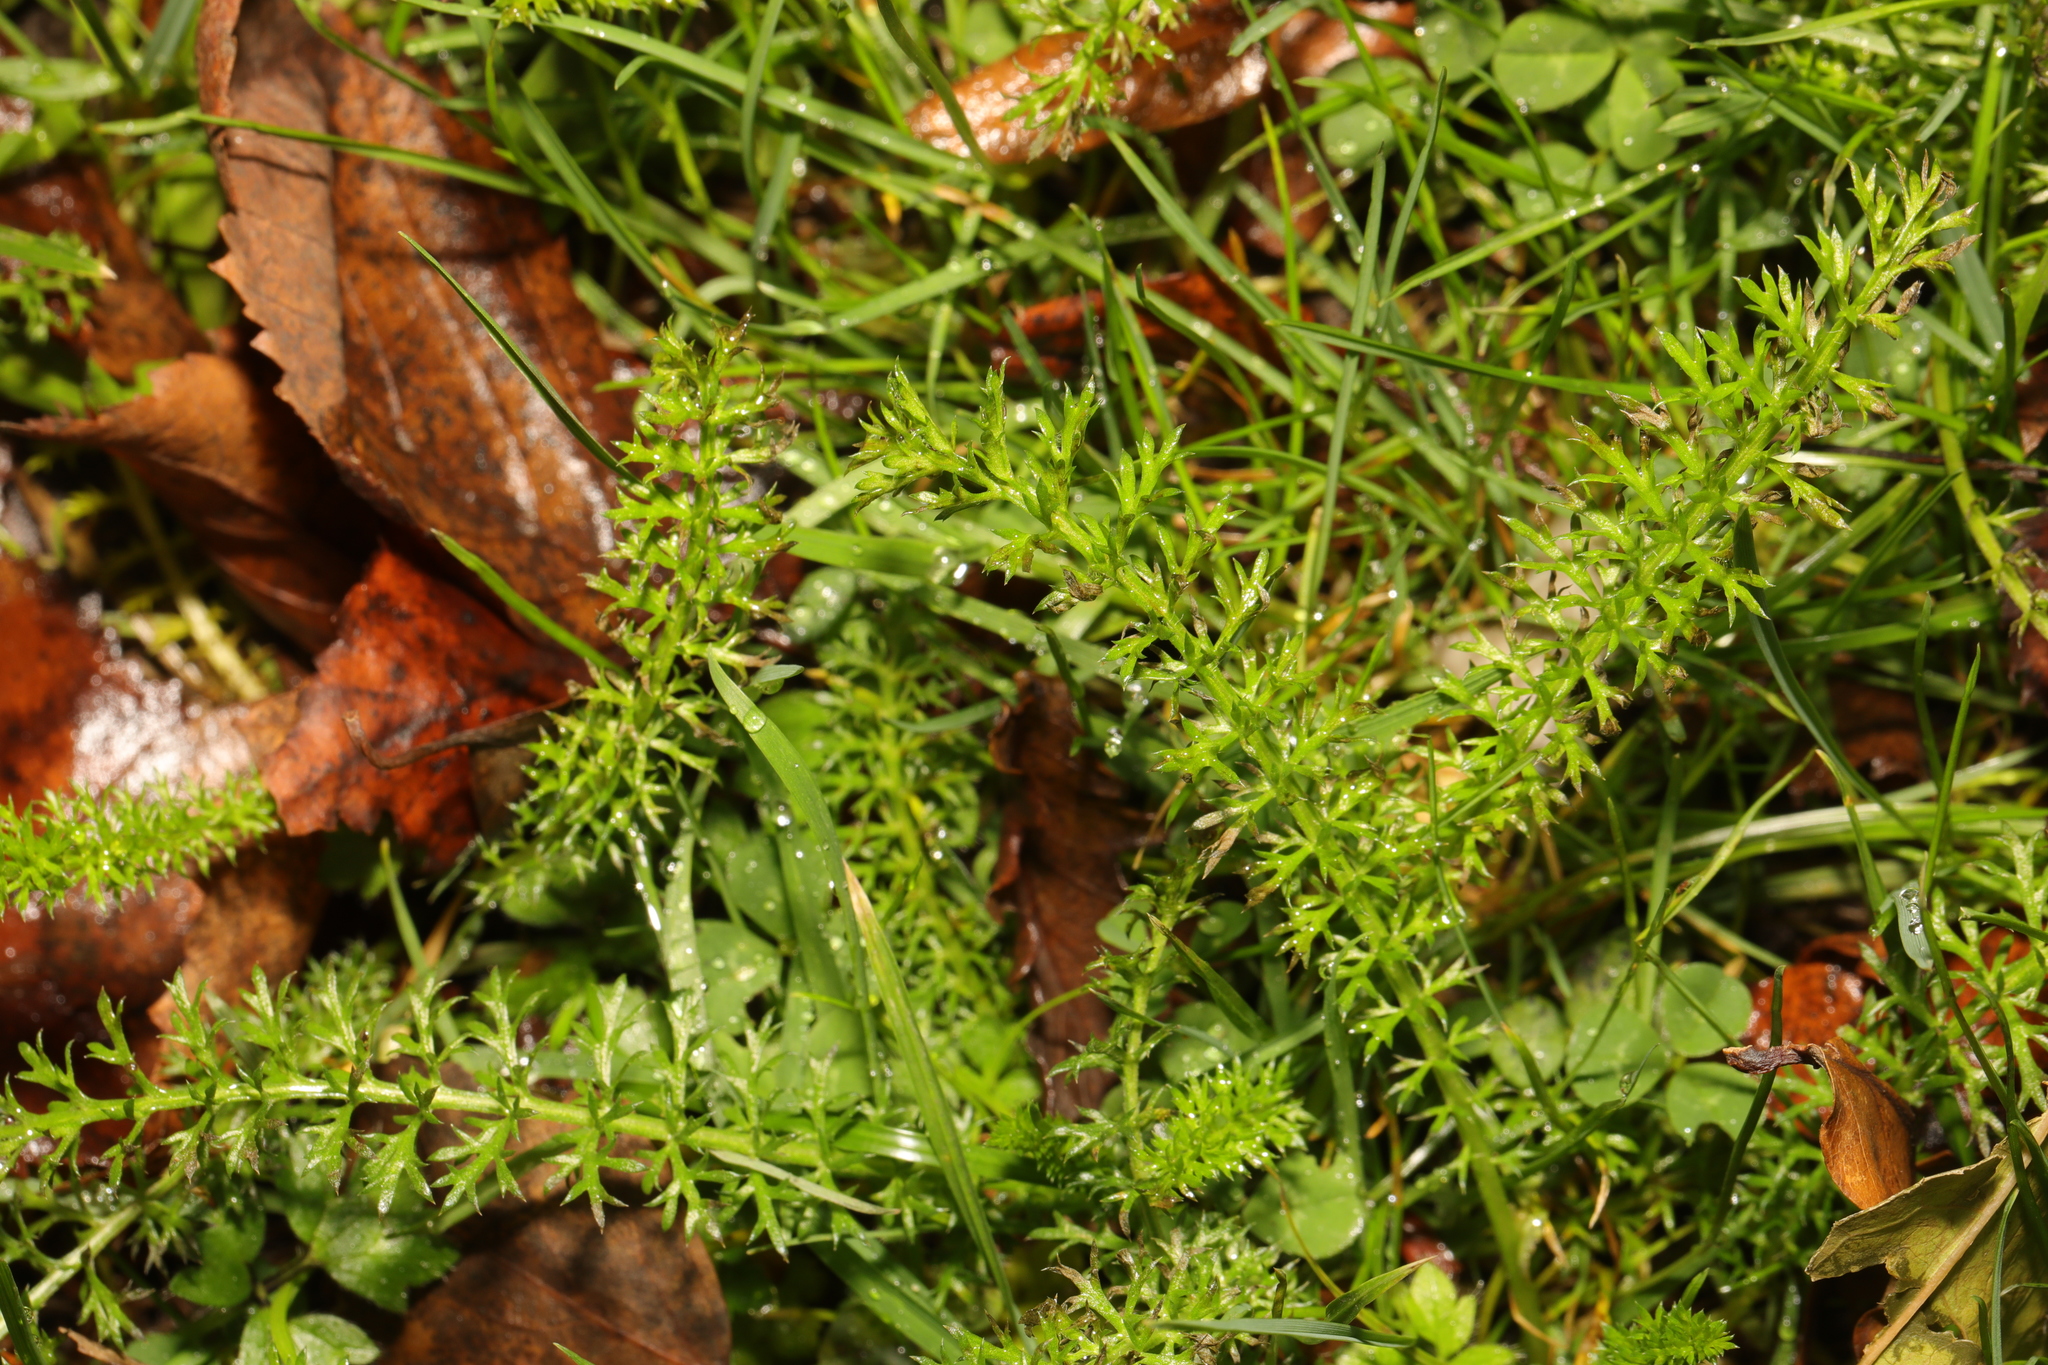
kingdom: Plantae
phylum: Tracheophyta
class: Magnoliopsida
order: Asterales
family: Asteraceae
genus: Achillea
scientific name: Achillea millefolium
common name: Yarrow
